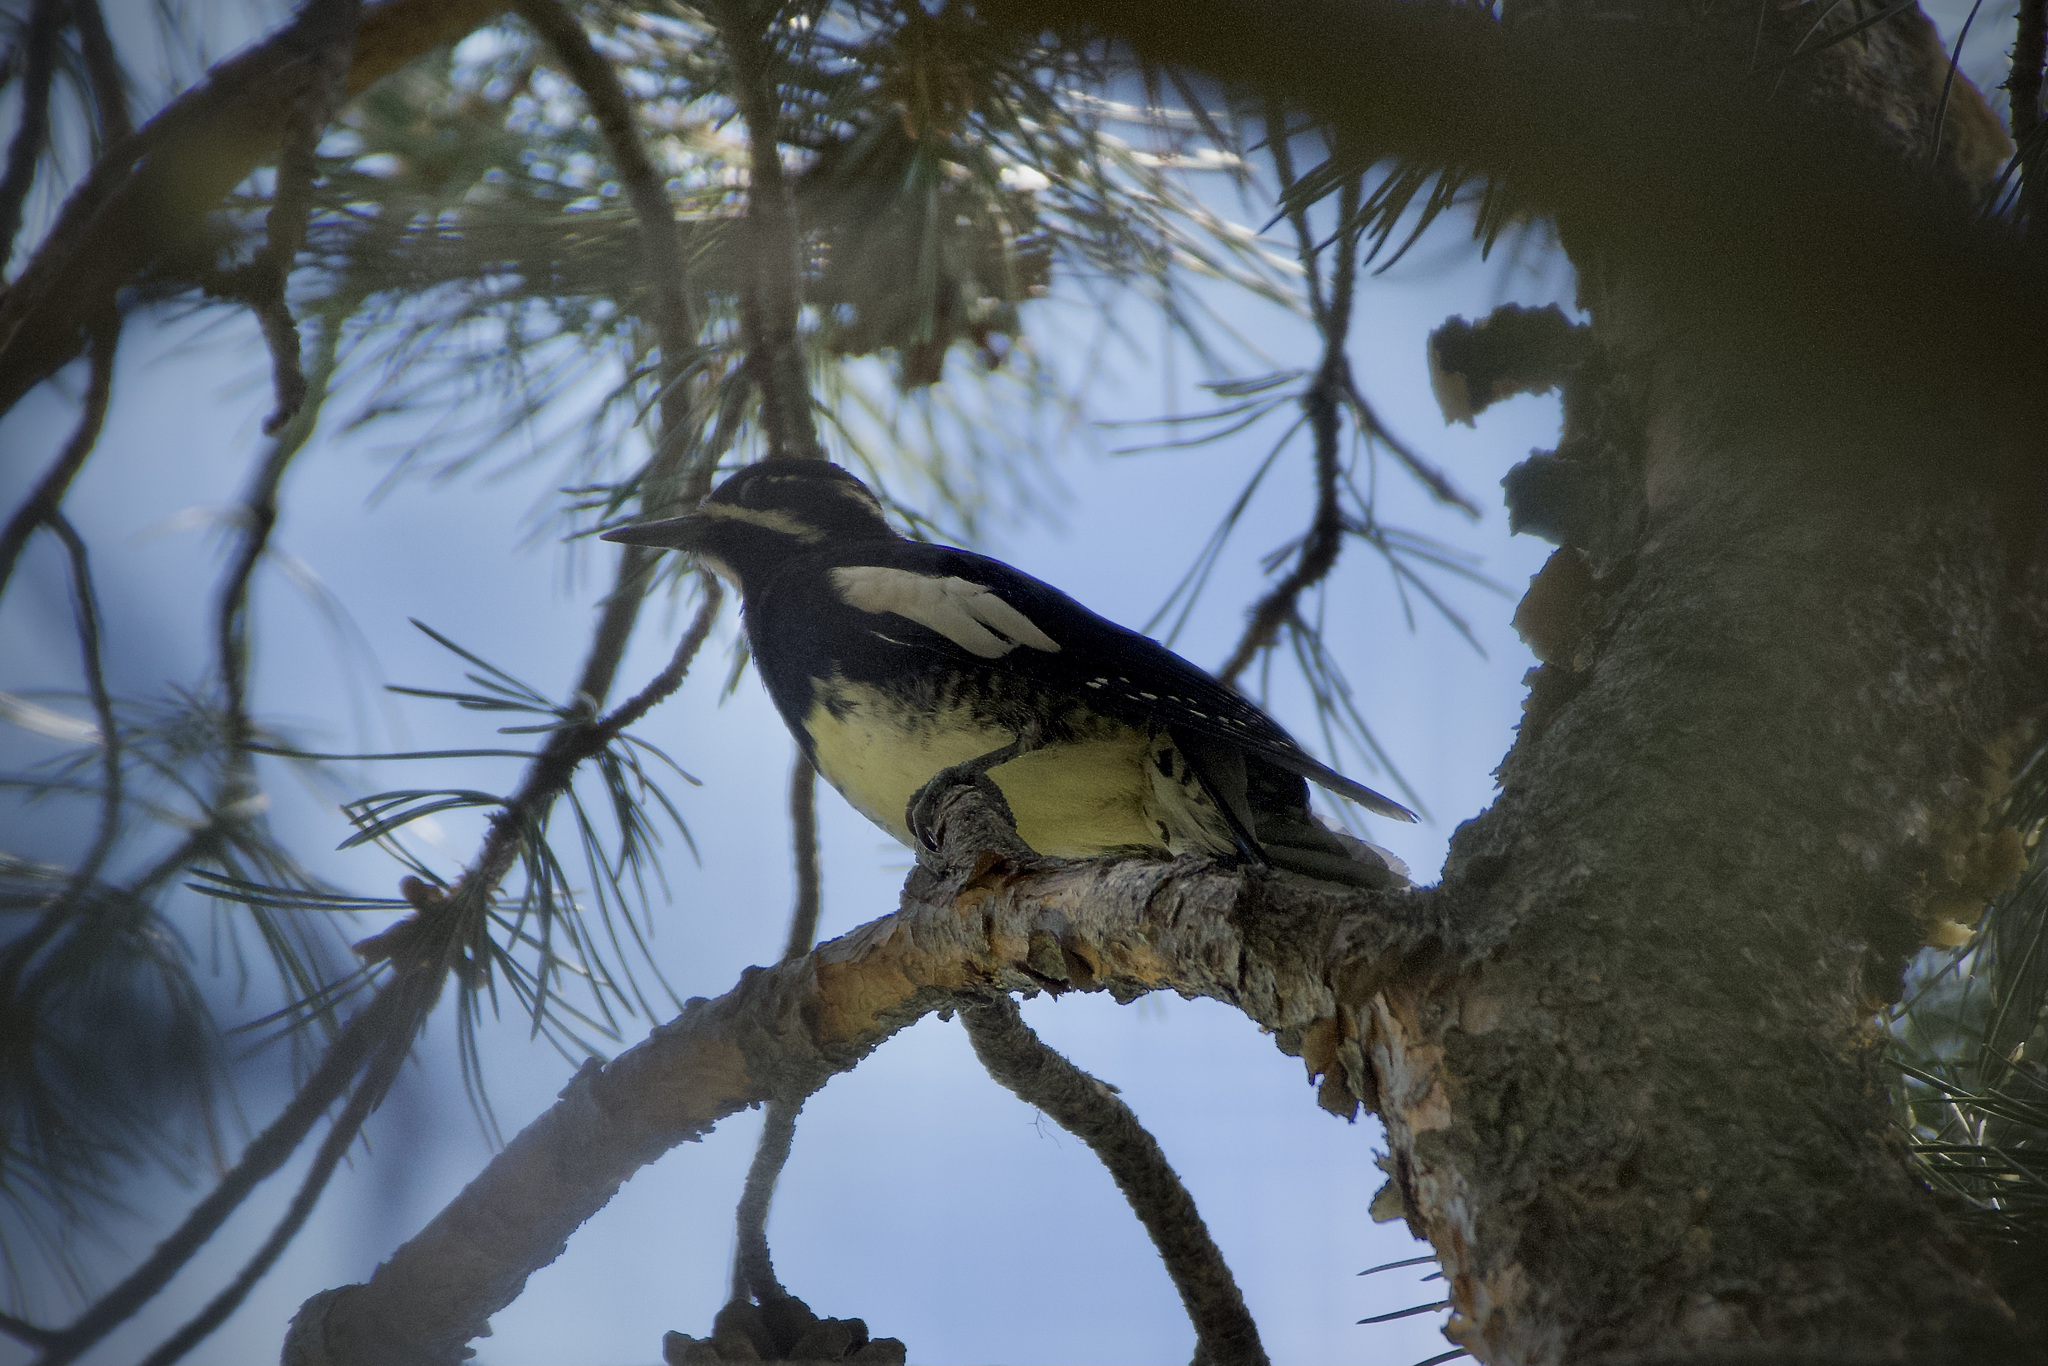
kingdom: Animalia
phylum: Chordata
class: Aves
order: Piciformes
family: Picidae
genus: Sphyrapicus
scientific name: Sphyrapicus thyroideus
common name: Williamson's sapsucker
